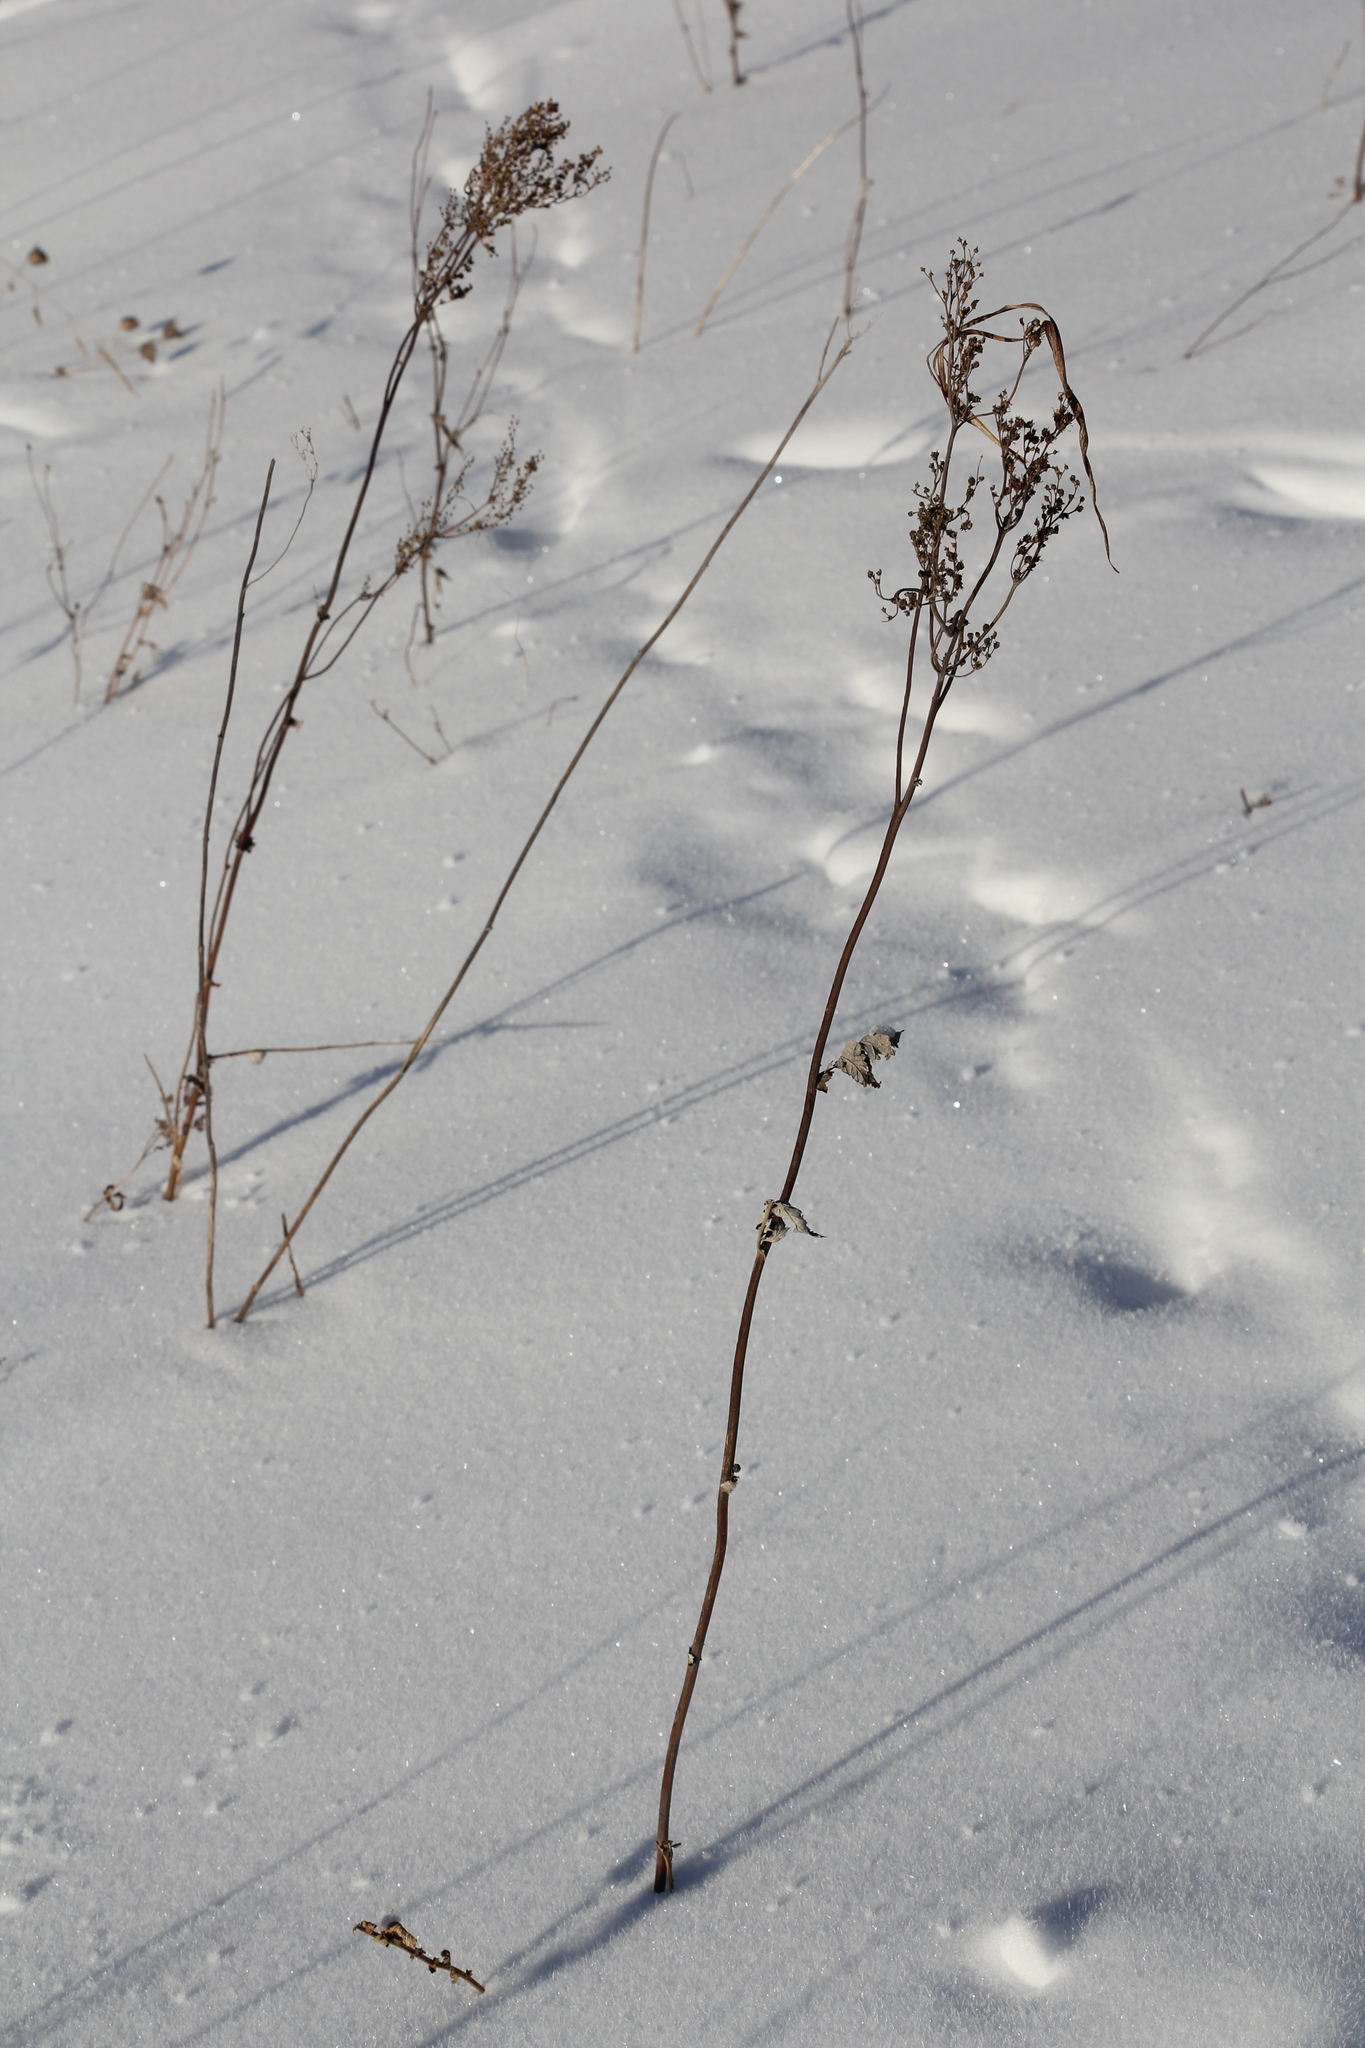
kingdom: Plantae
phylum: Tracheophyta
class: Magnoliopsida
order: Rosales
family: Rosaceae
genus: Filipendula
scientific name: Filipendula vulgaris
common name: Dropwort
